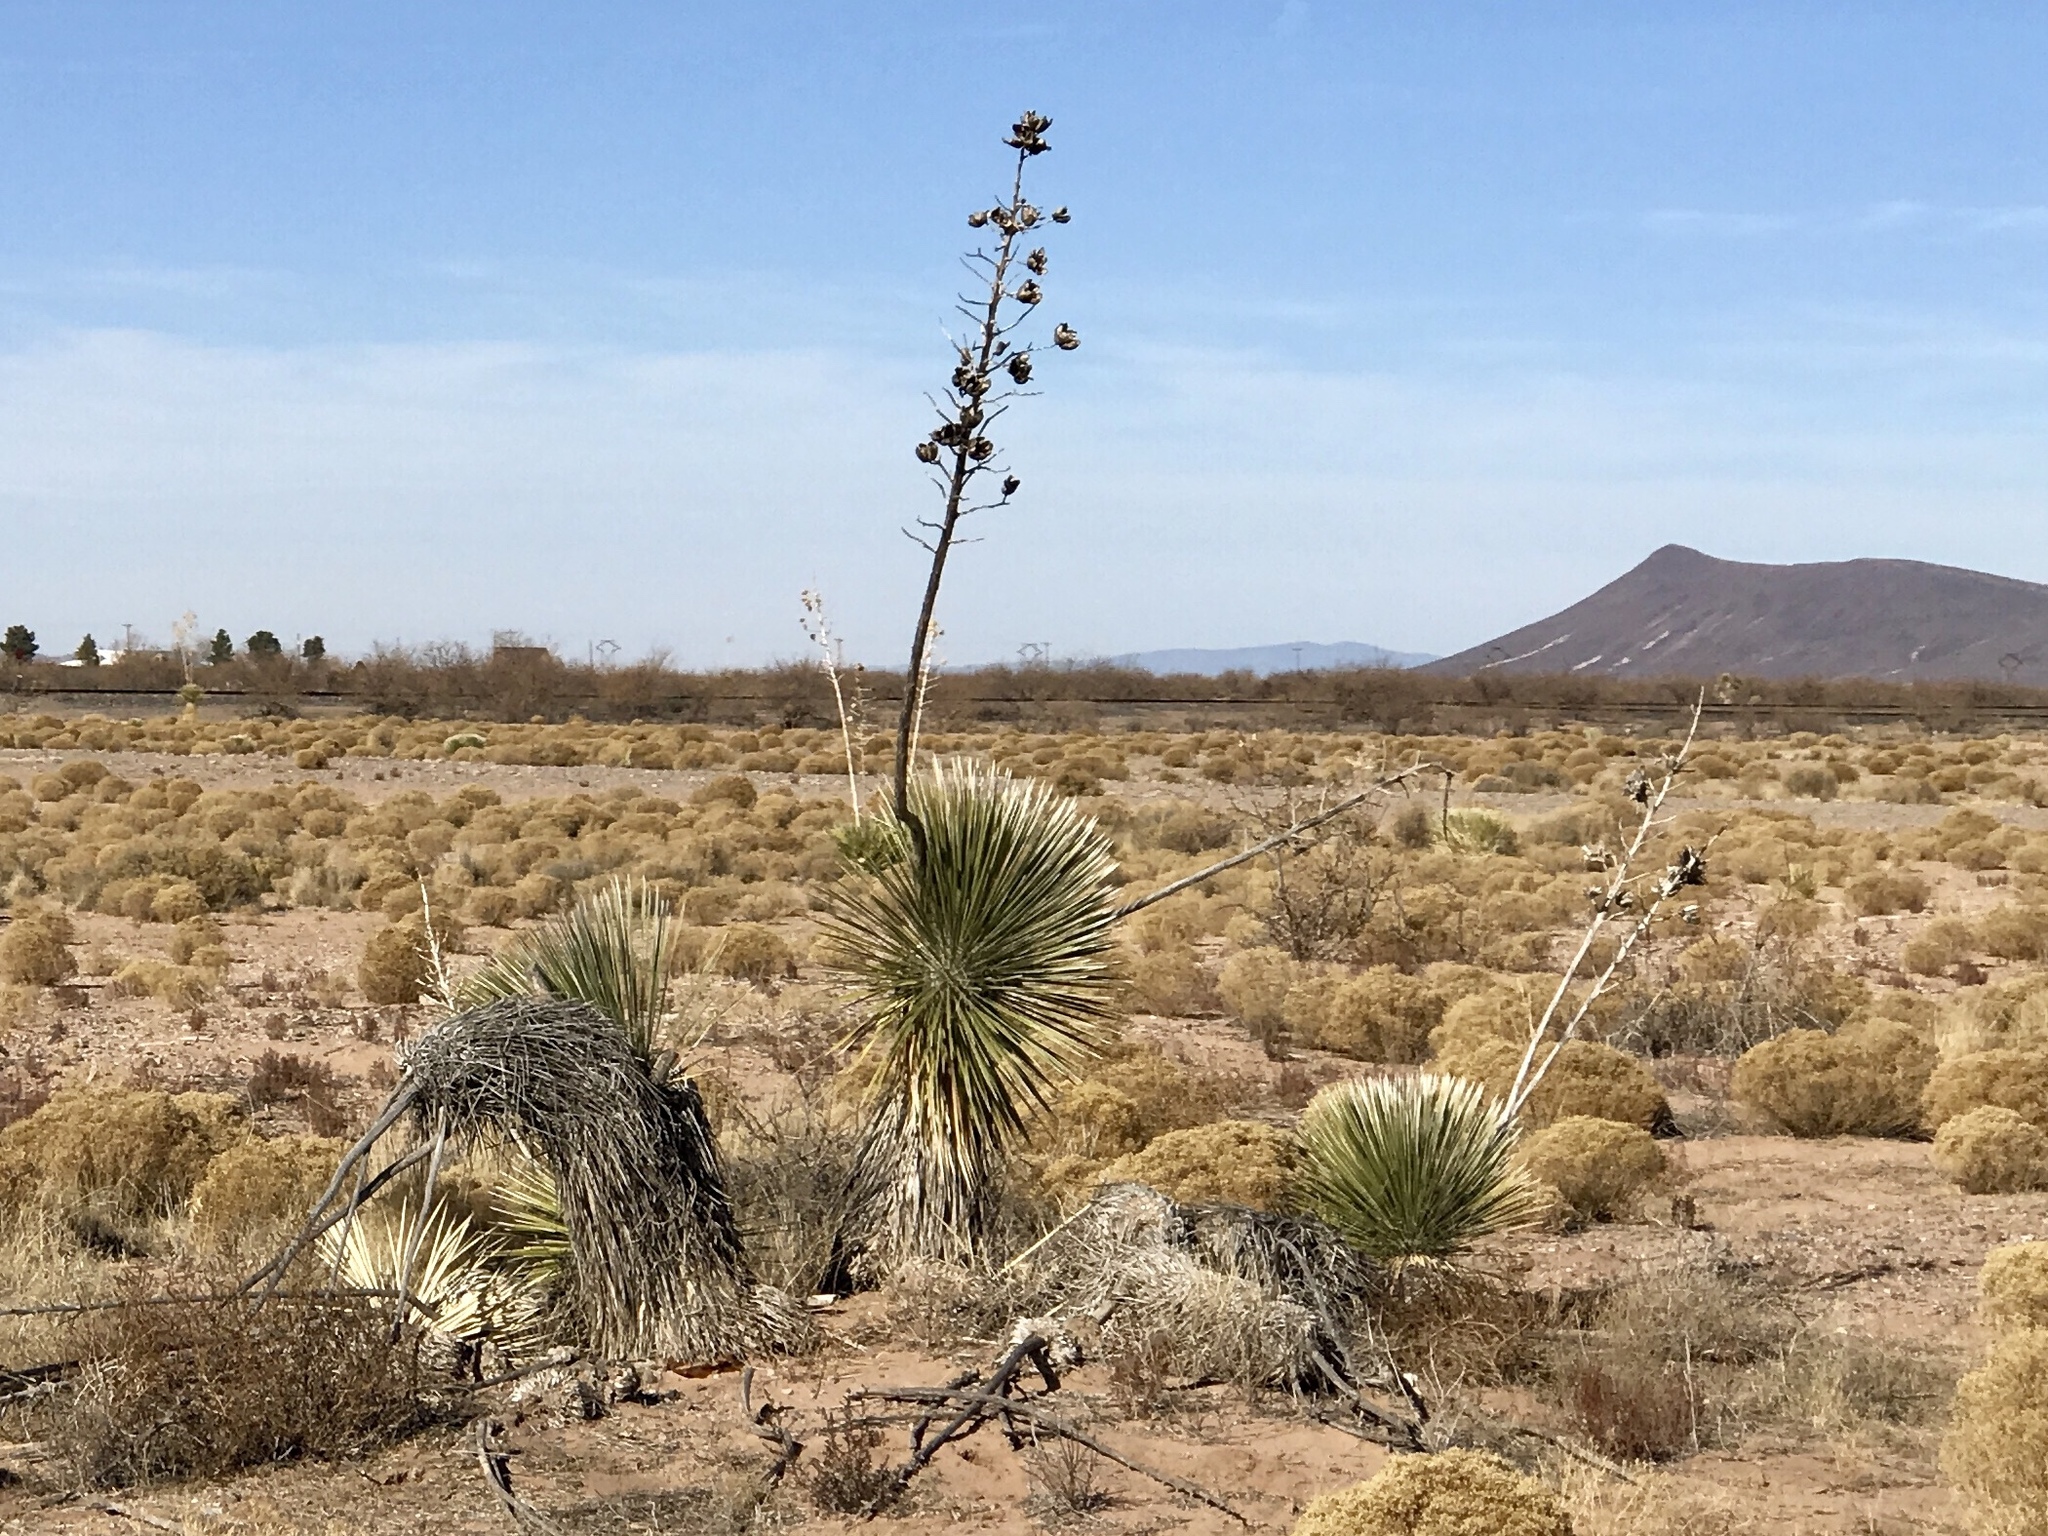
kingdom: Plantae
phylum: Tracheophyta
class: Liliopsida
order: Asparagales
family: Asparagaceae
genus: Yucca
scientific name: Yucca elata
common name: Palmella
